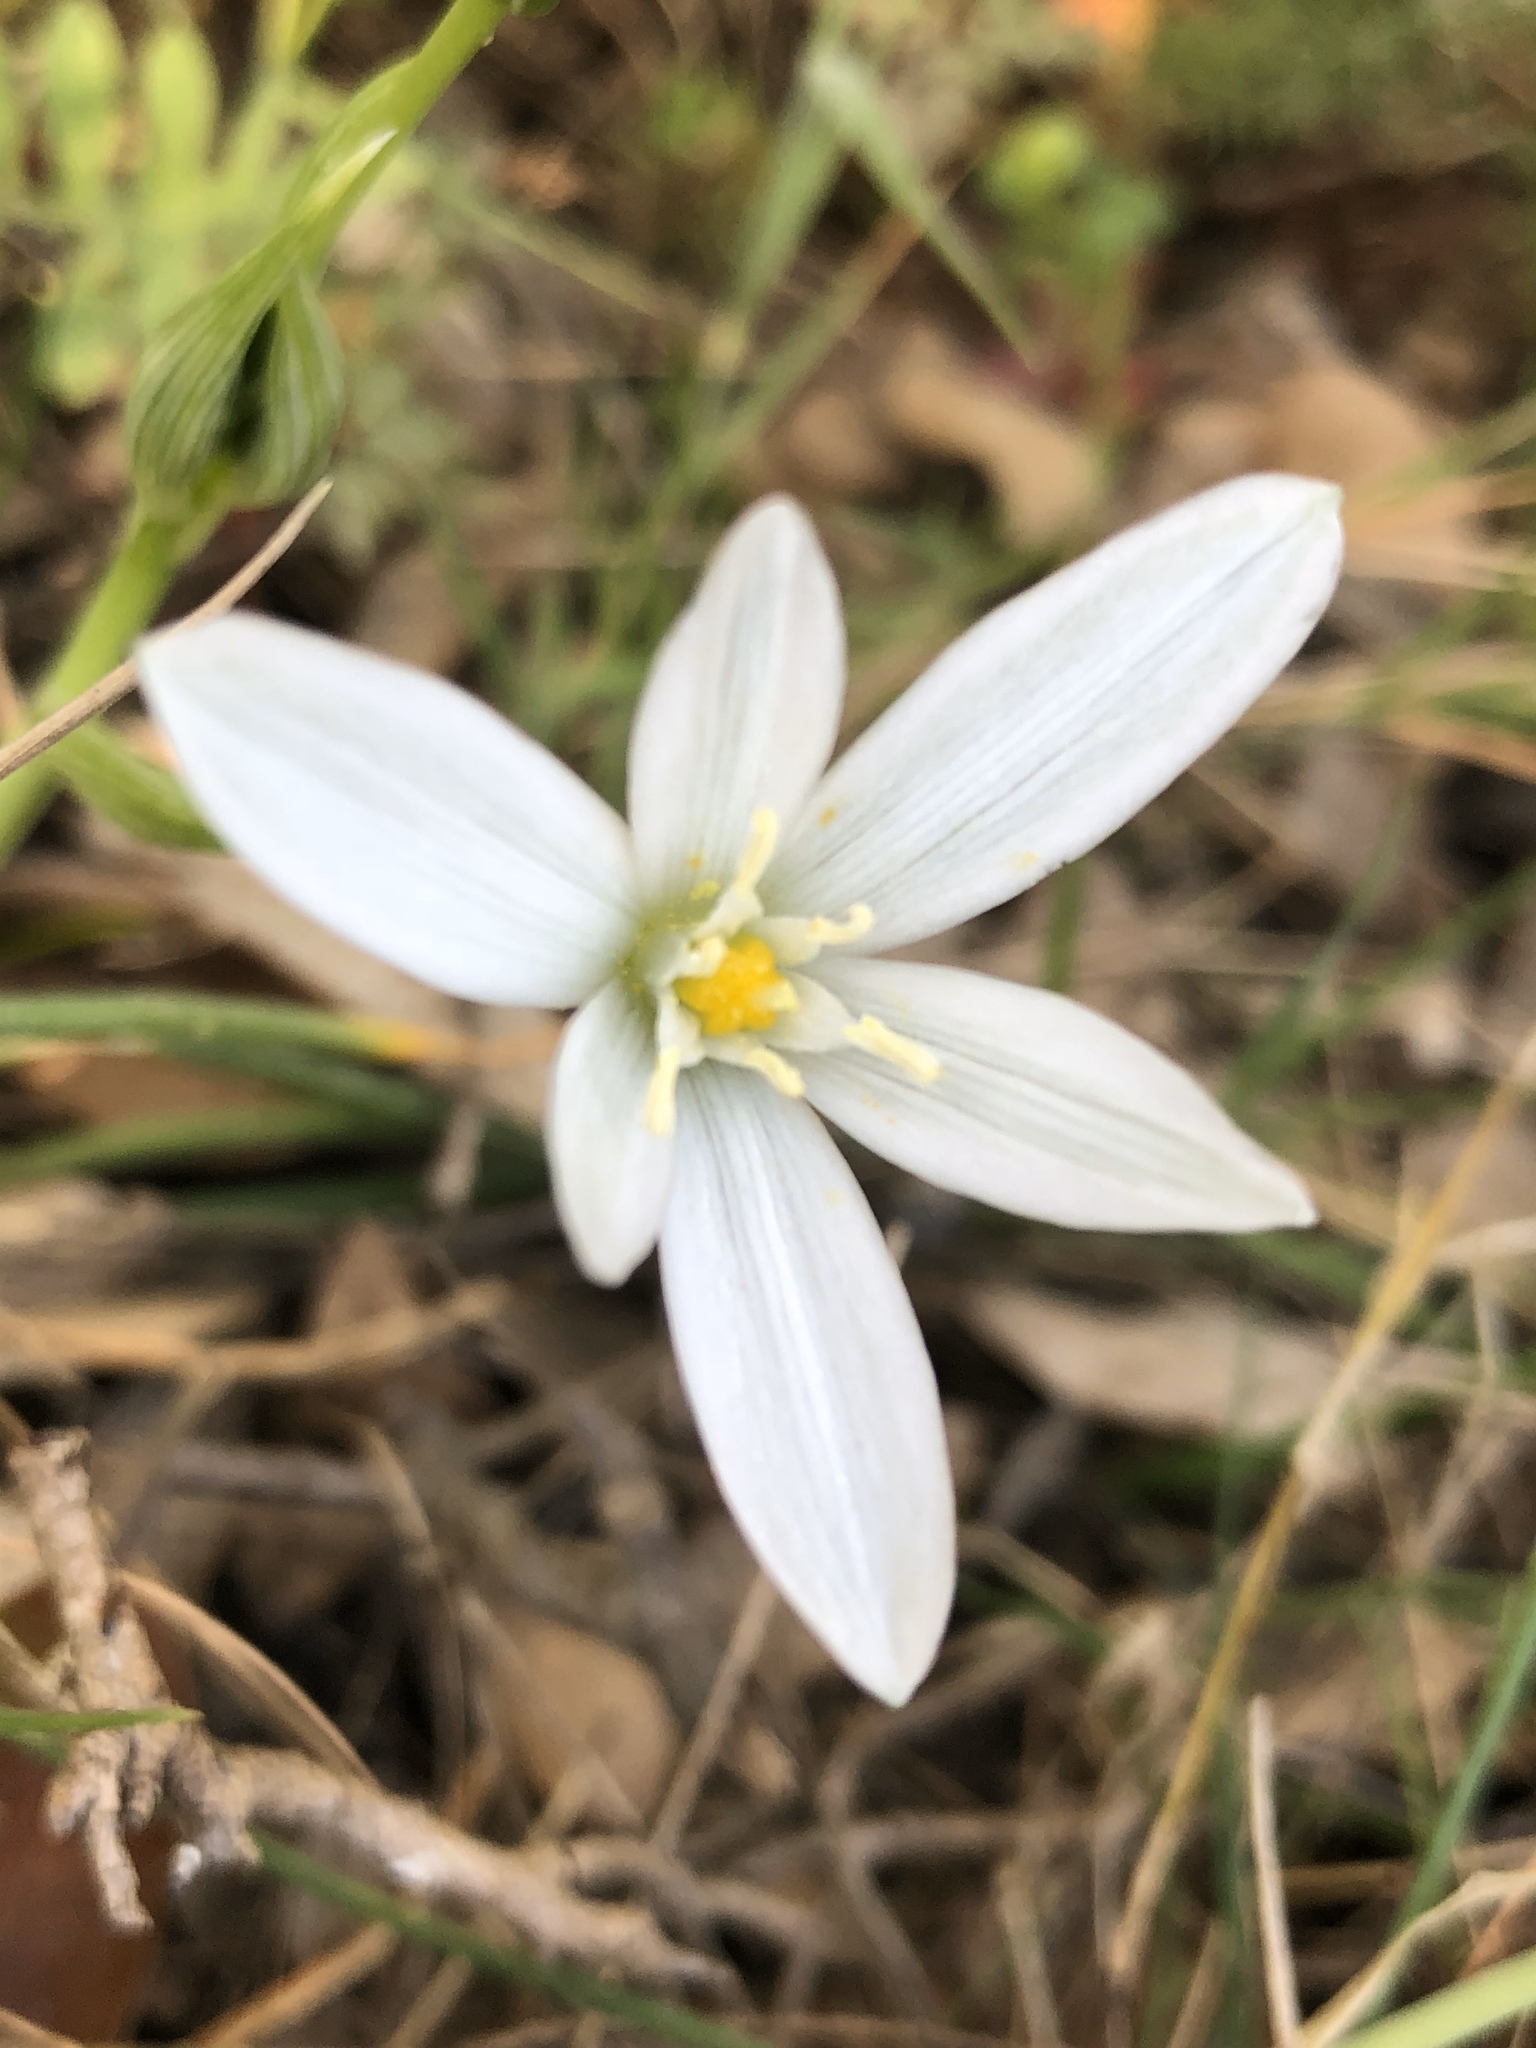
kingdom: Plantae
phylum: Tracheophyta
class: Liliopsida
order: Asparagales
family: Asparagaceae
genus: Ornithogalum
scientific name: Ornithogalum umbellatum
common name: Garden star-of-bethlehem
